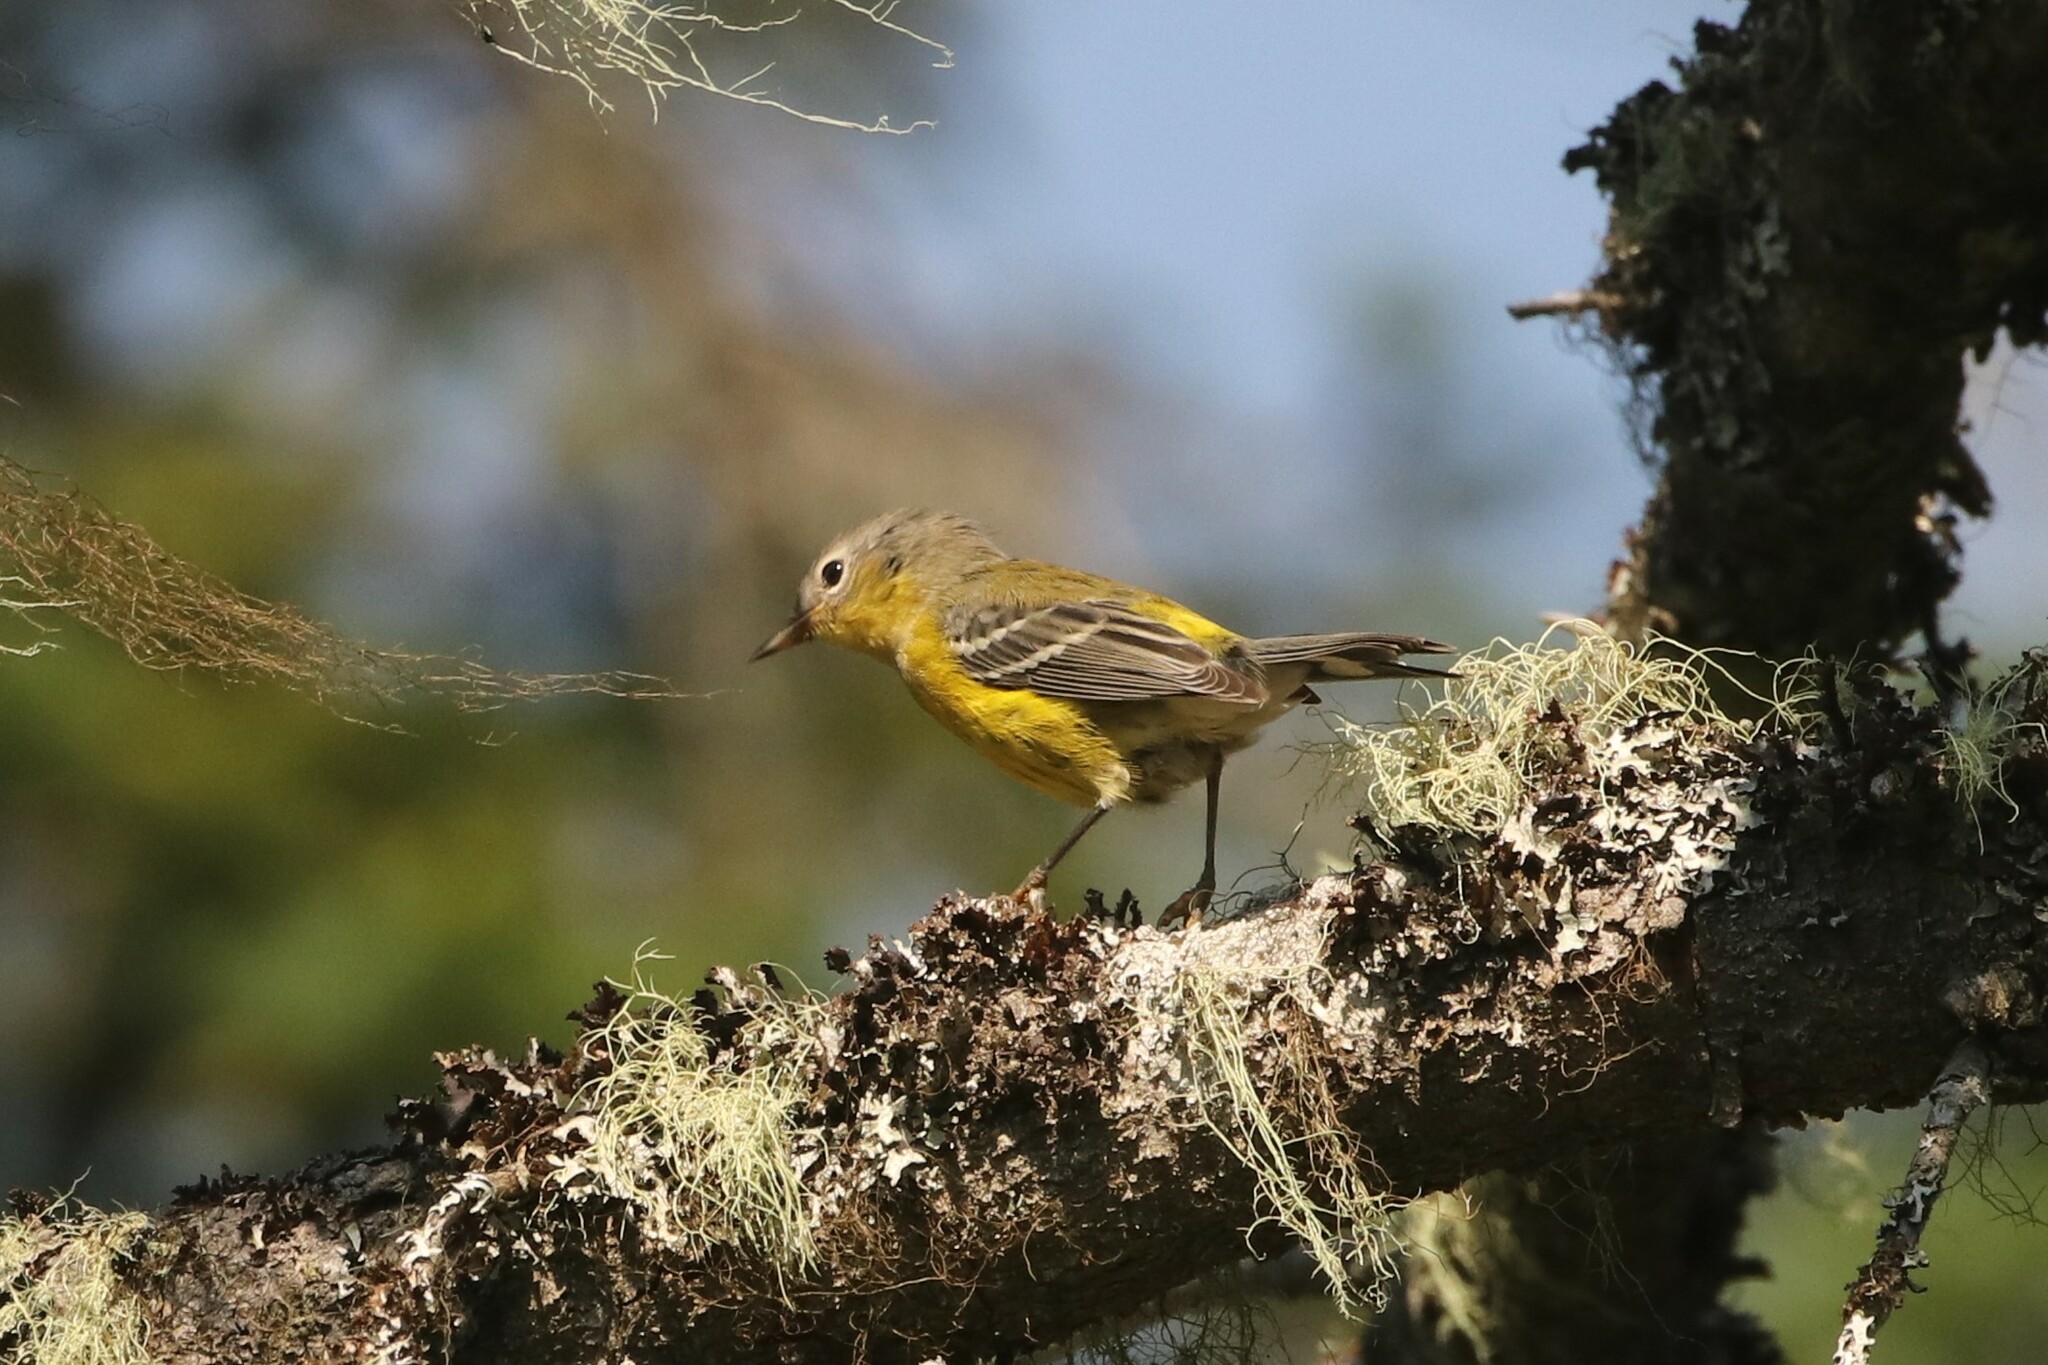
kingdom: Animalia
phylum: Chordata
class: Aves
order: Passeriformes
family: Parulidae
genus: Setophaga
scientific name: Setophaga magnolia
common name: Magnolia warbler
